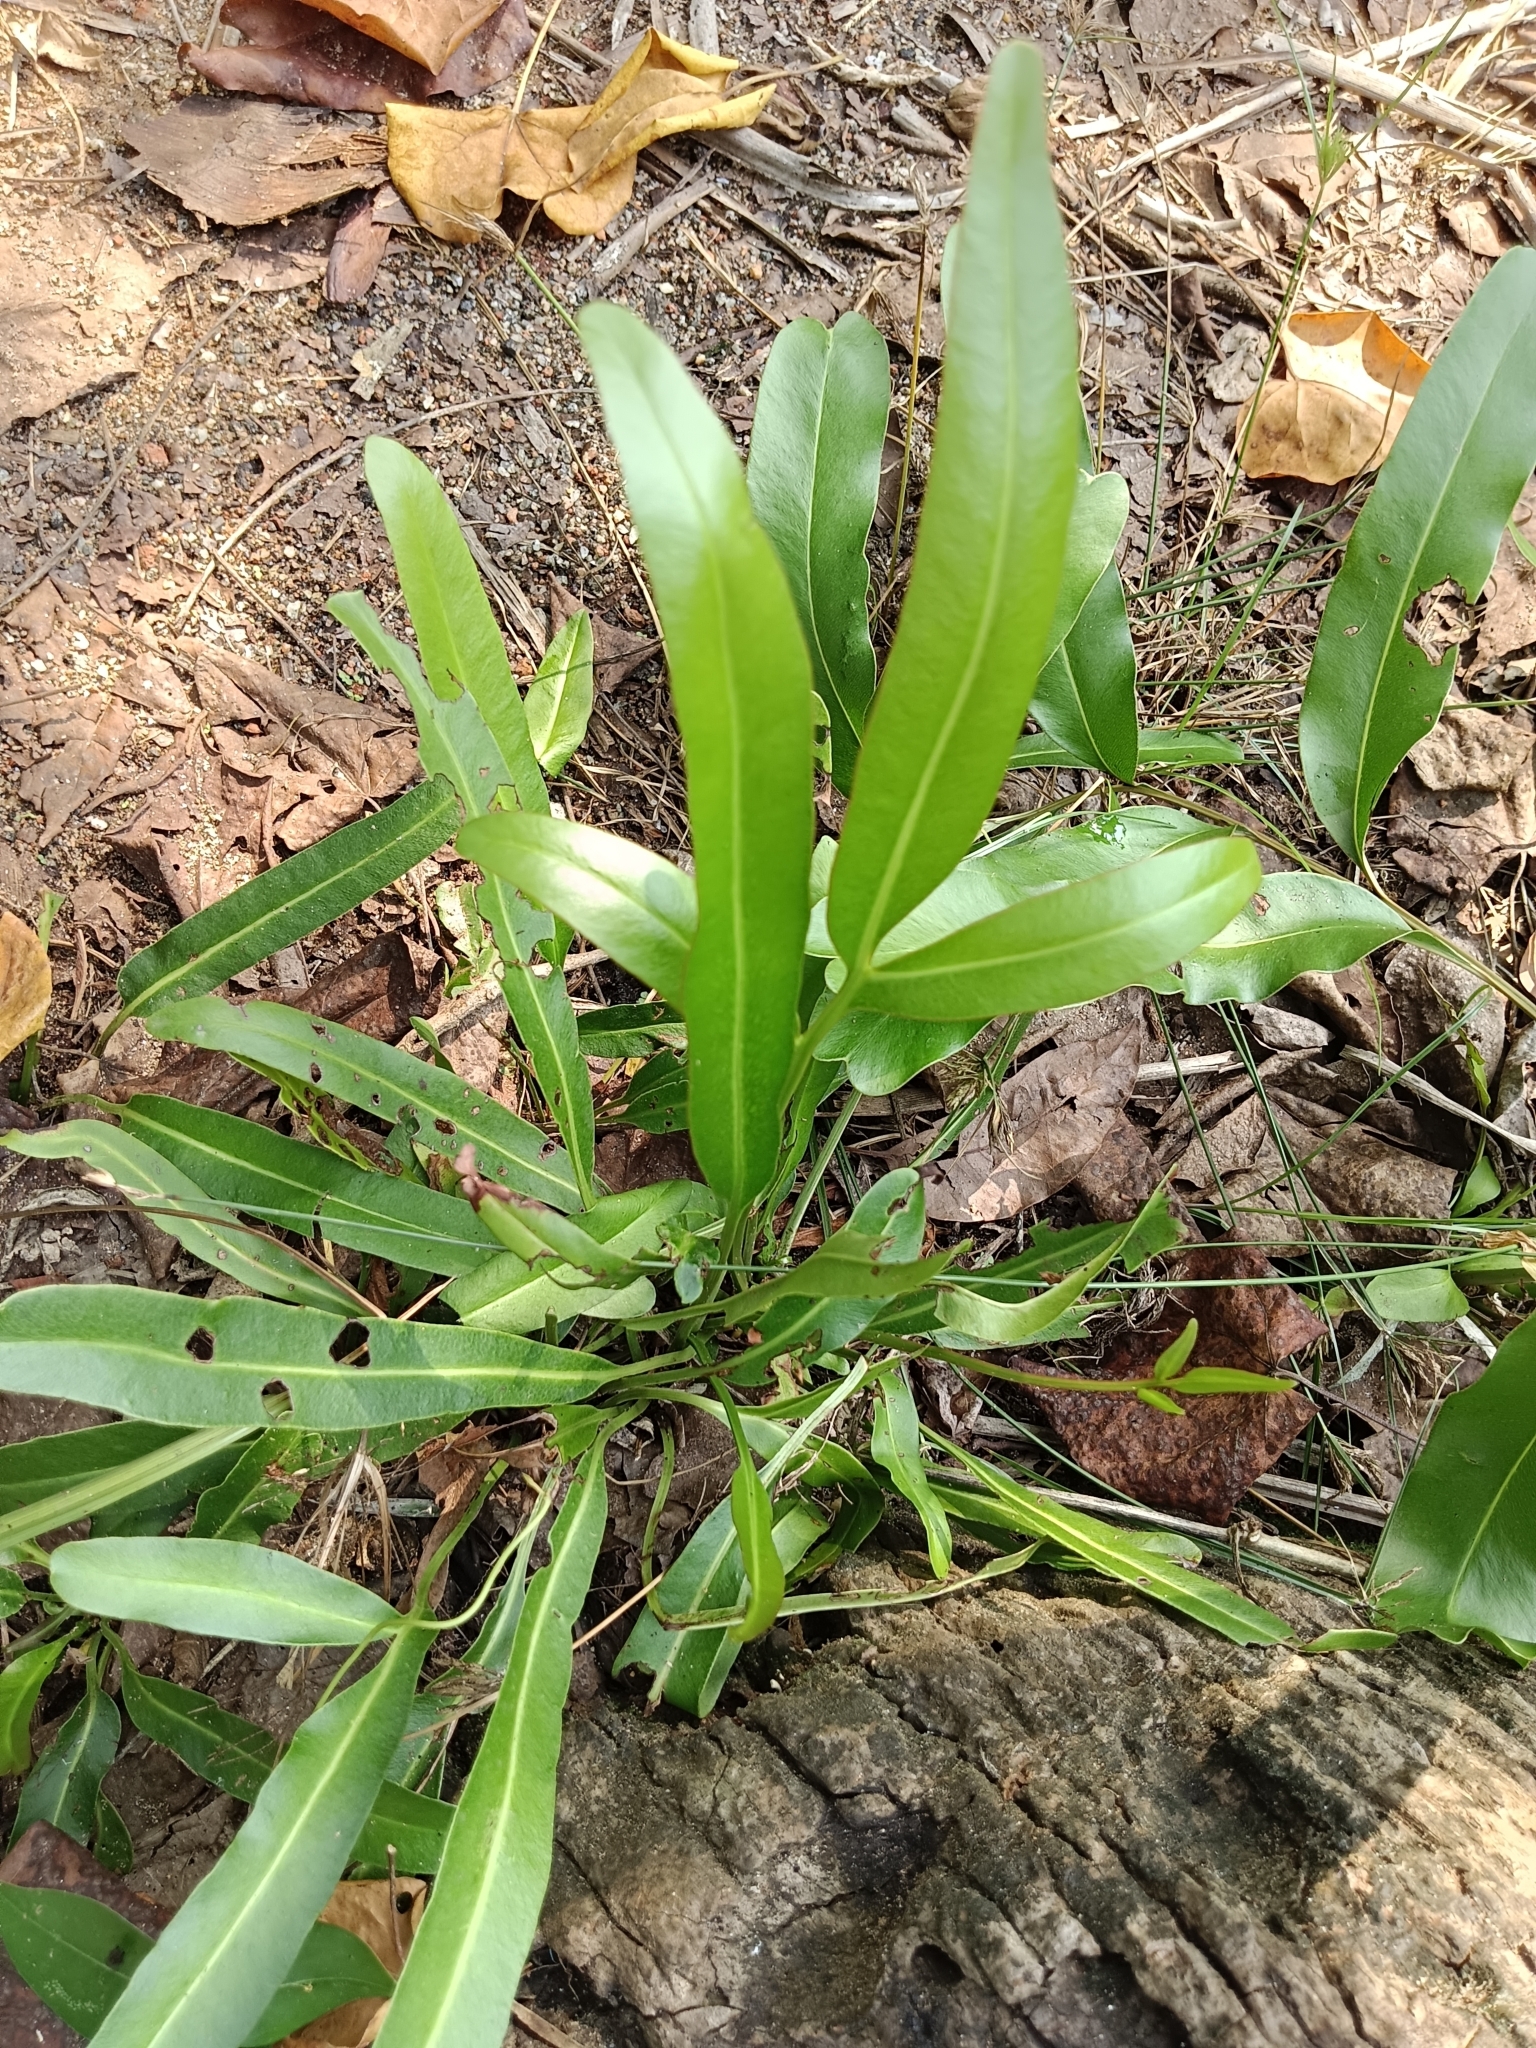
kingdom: Plantae
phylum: Tracheophyta
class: Polypodiopsida
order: Polypodiales
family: Pteridaceae
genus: Acrostichum
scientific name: Acrostichum aureum
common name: Leather fern
